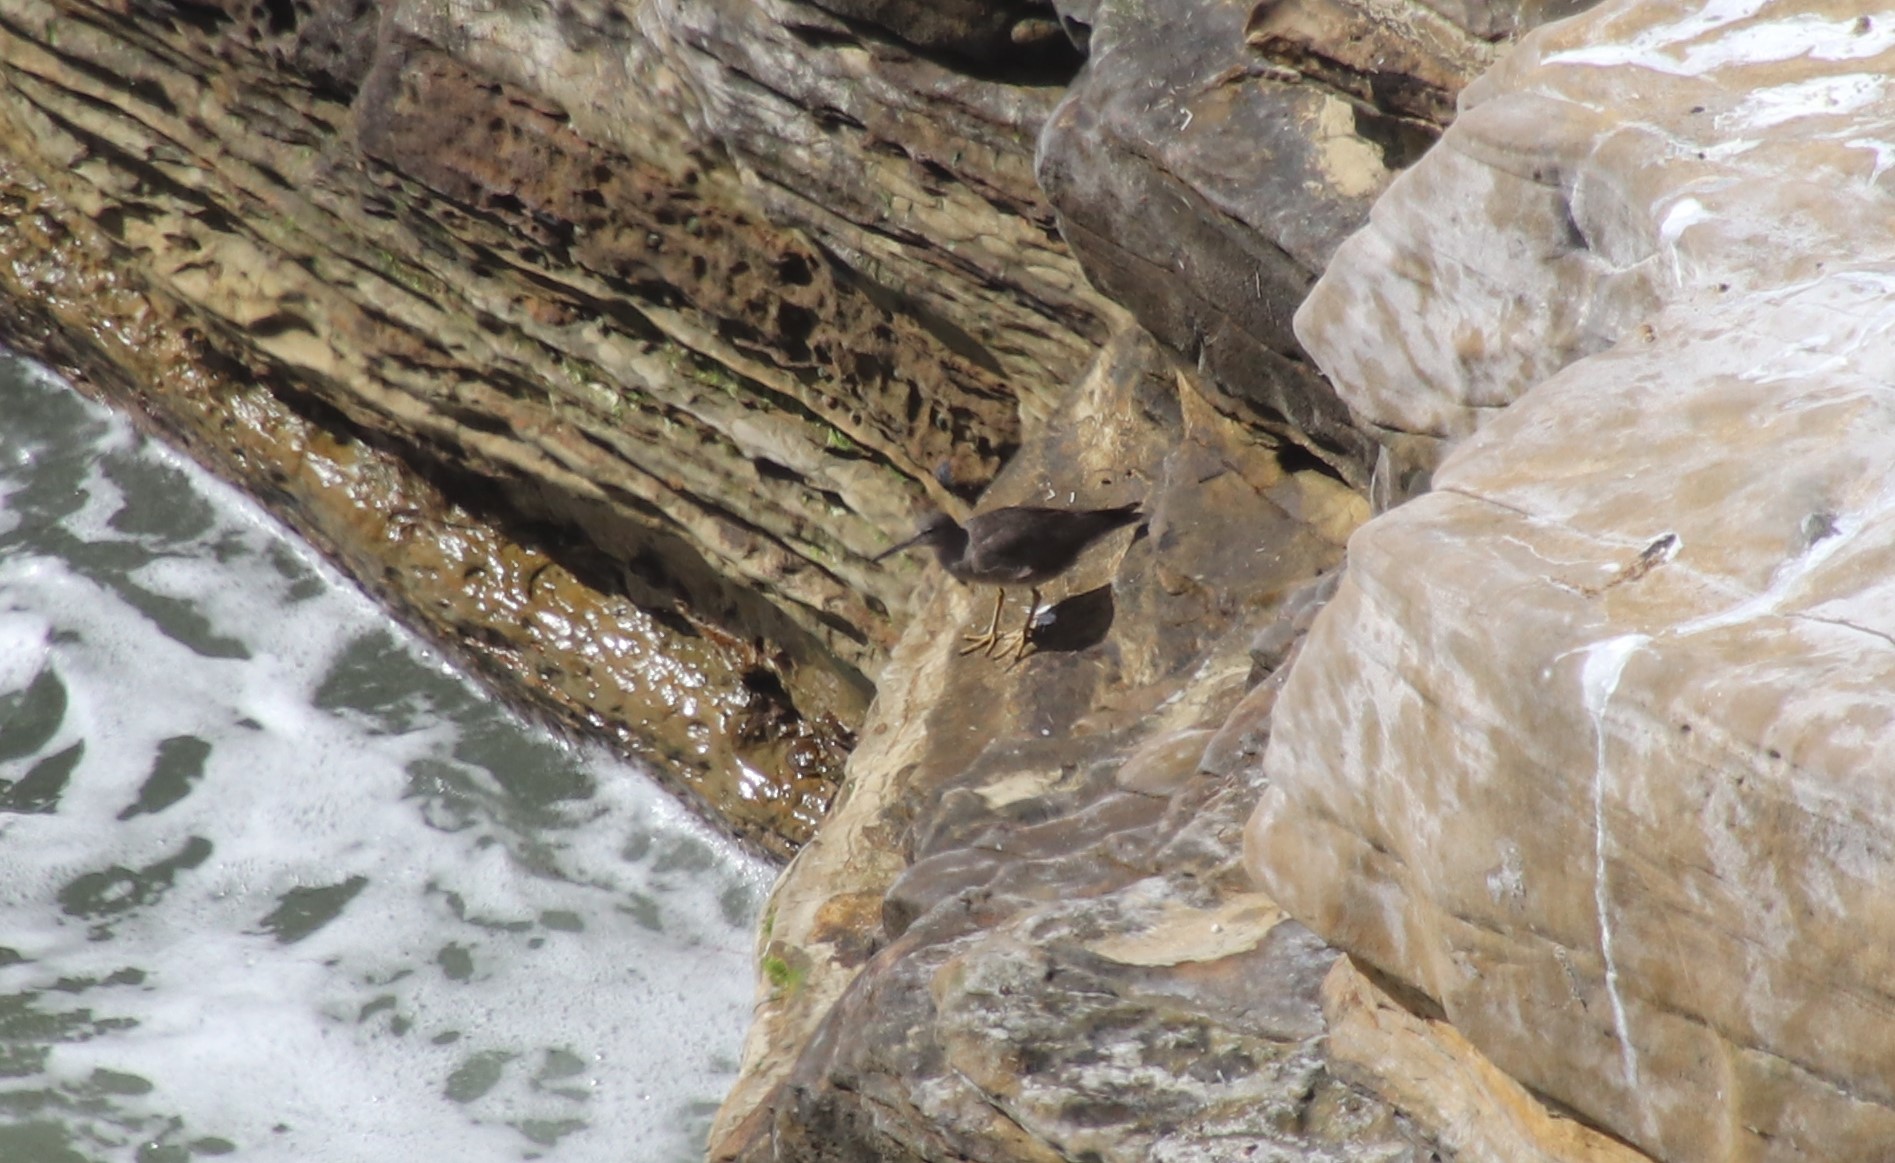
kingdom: Animalia
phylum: Chordata
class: Aves
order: Charadriiformes
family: Scolopacidae
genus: Tringa
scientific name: Tringa incana
